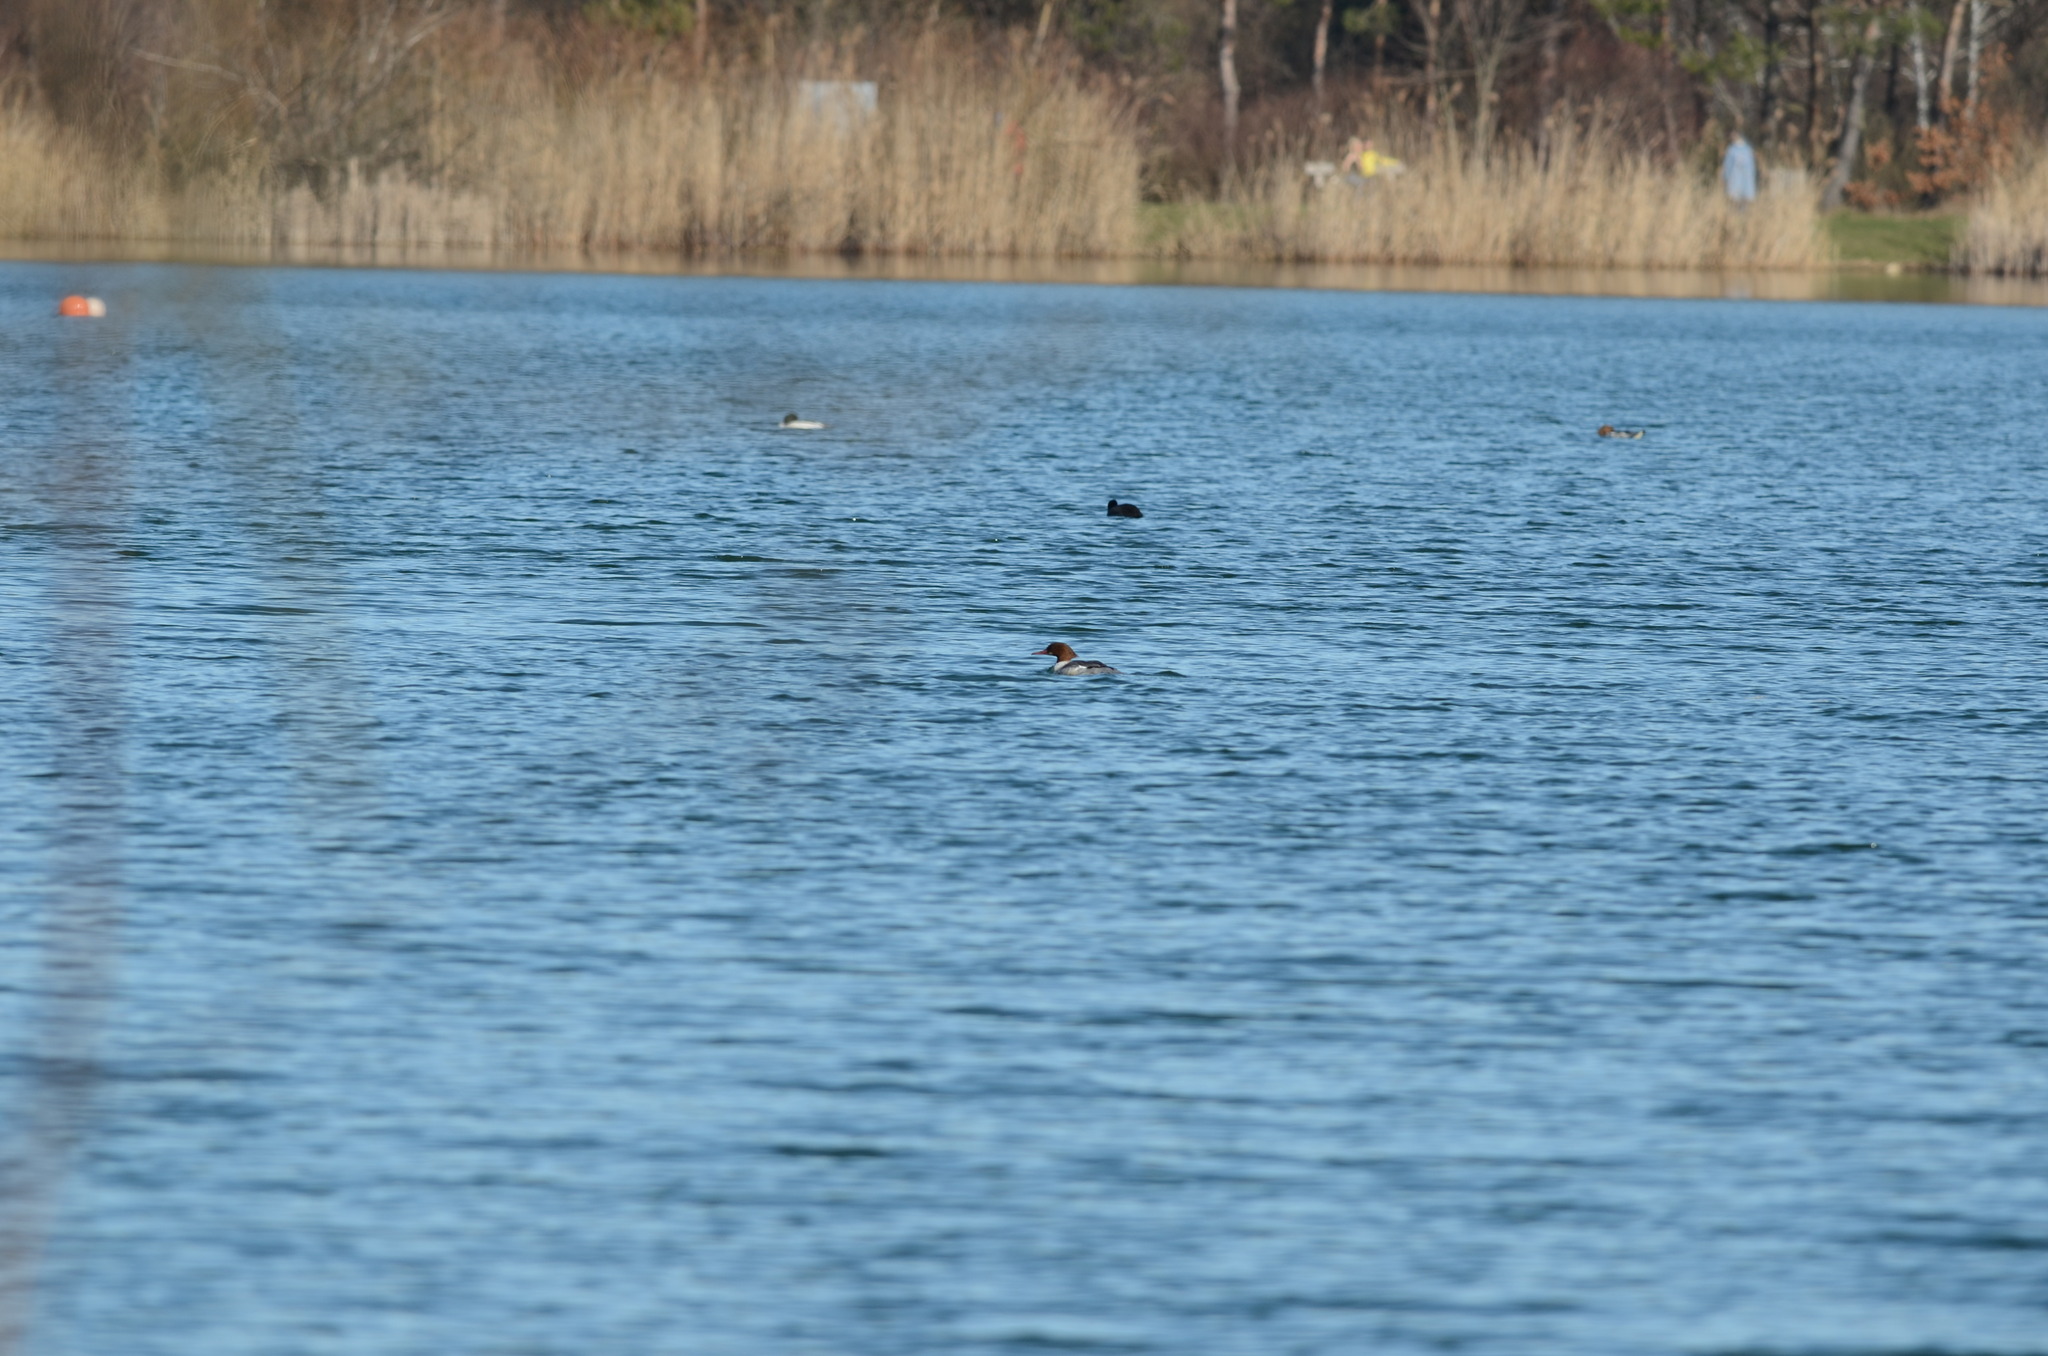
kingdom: Animalia
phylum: Chordata
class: Aves
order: Anseriformes
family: Anatidae
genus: Mergus
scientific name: Mergus merganser
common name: Common merganser
